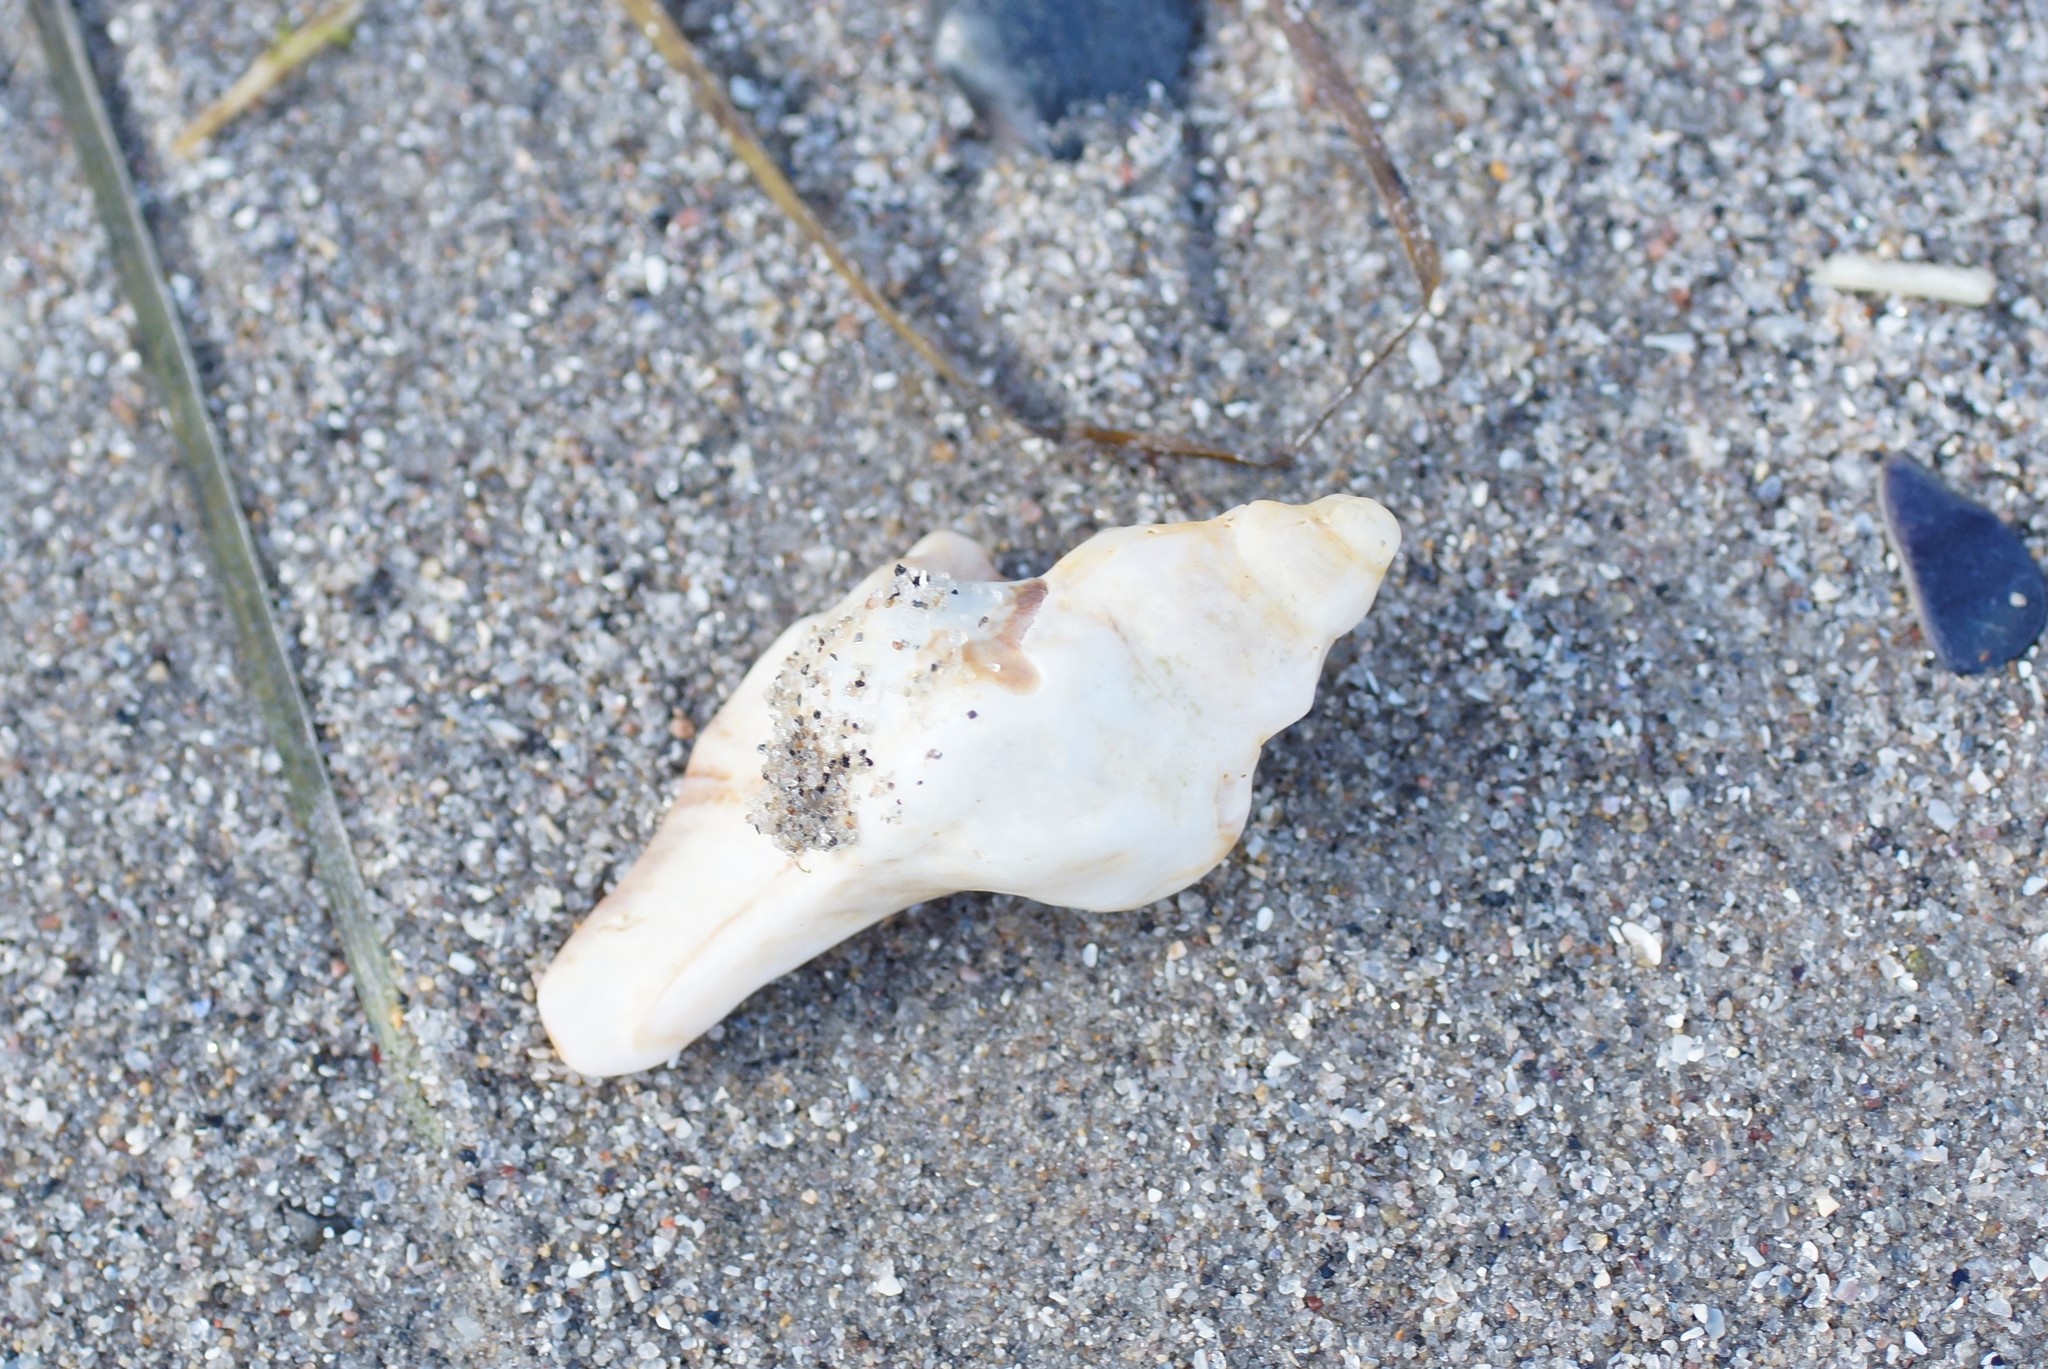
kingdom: Animalia
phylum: Mollusca
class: Gastropoda
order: Neogastropoda
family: Muricidae
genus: Pterochelus
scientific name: Pterochelus triformis
